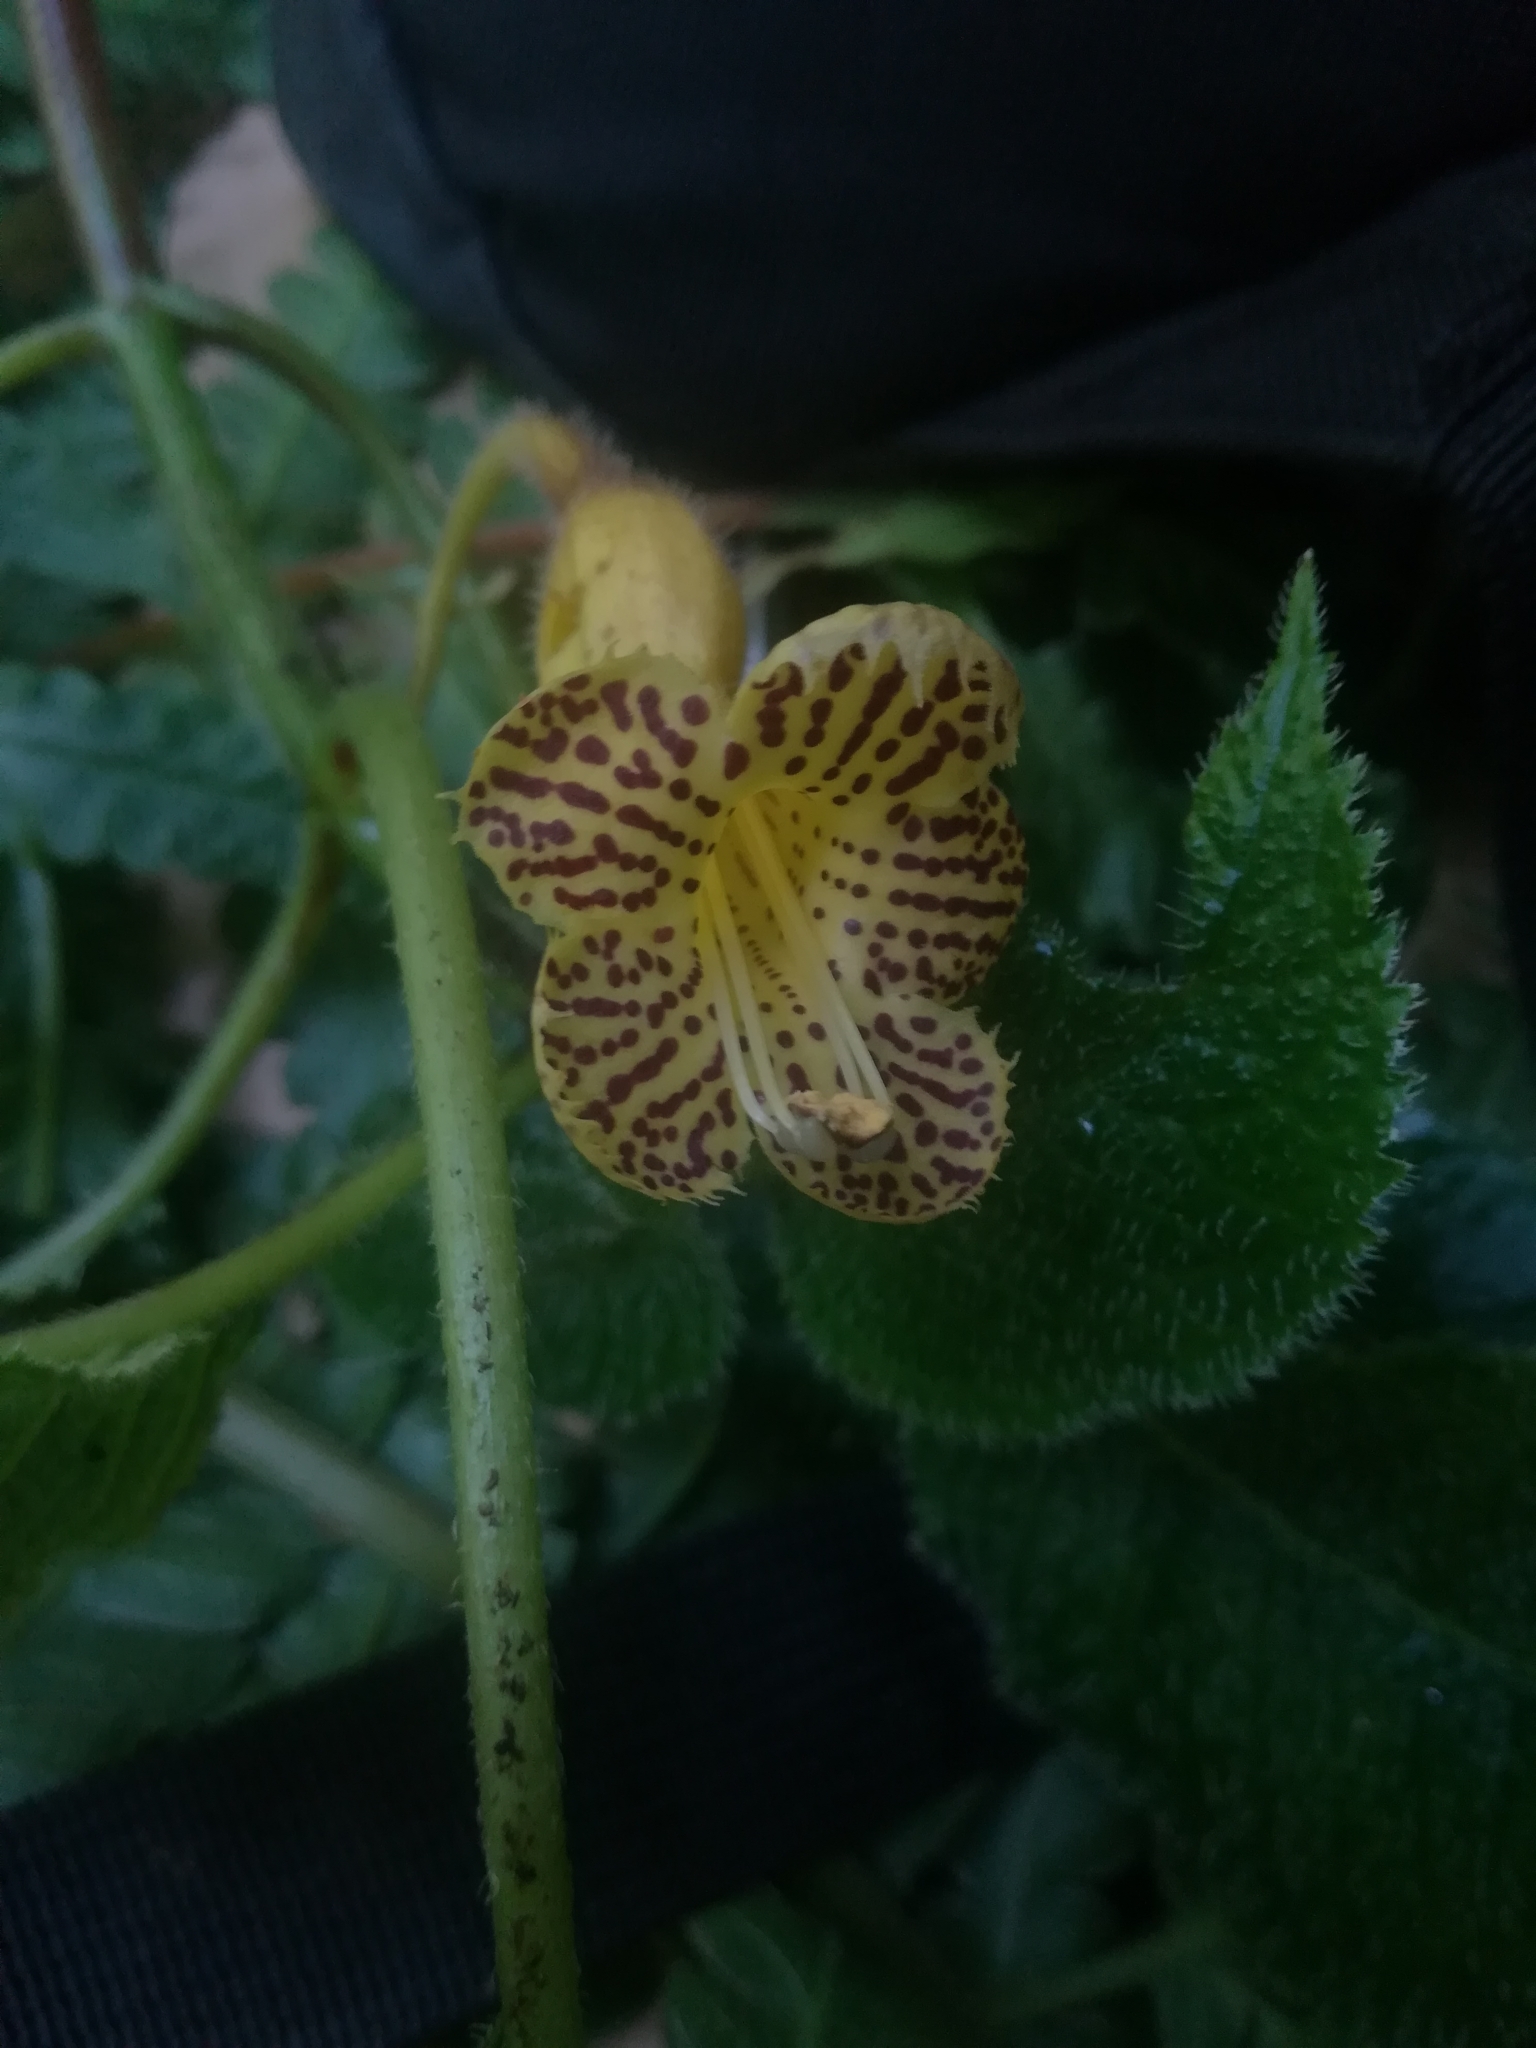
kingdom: Plantae
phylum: Tracheophyta
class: Magnoliopsida
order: Lamiales
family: Gesneriaceae
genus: Solenophora
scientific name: Solenophora tuxtlensis
